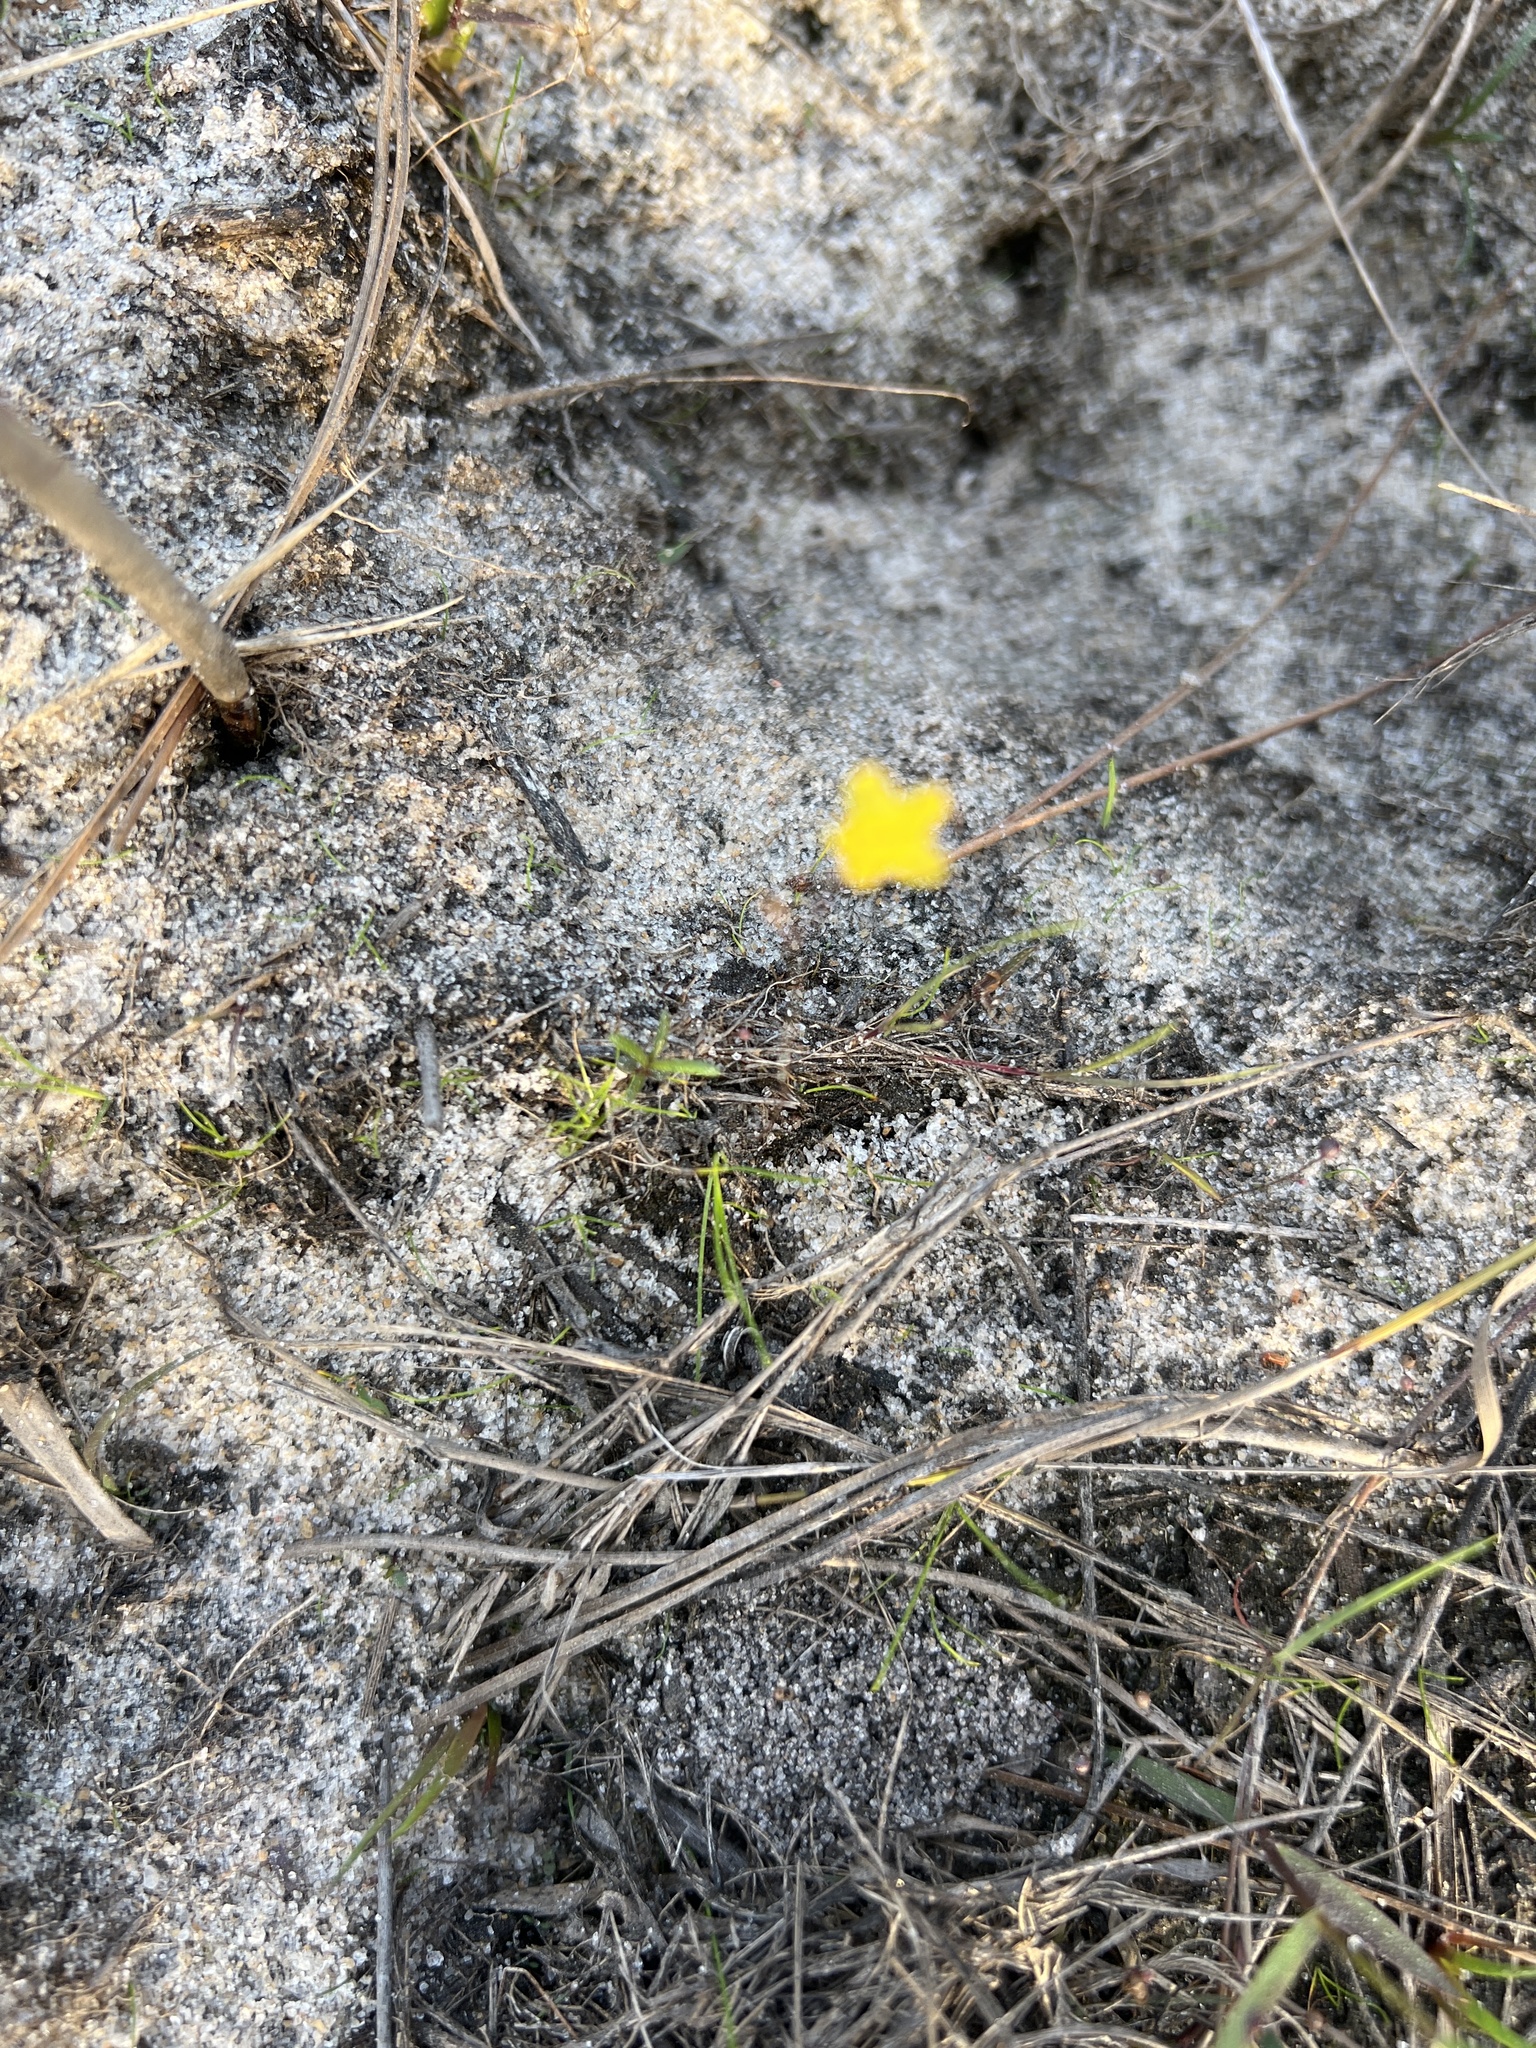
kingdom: Plantae
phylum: Tracheophyta
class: Magnoliopsida
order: Lamiales
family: Lentibulariaceae
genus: Utricularia
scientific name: Utricularia subulata
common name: Tiny bladderwort
